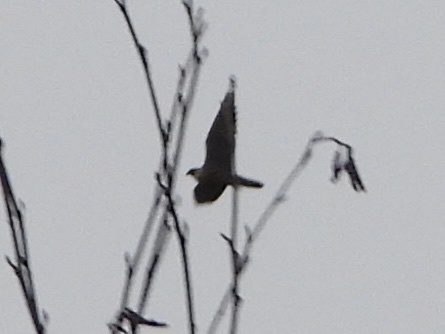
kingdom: Animalia
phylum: Chordata
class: Aves
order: Falconiformes
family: Falconidae
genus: Falco
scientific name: Falco peregrinus
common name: Peregrine falcon
